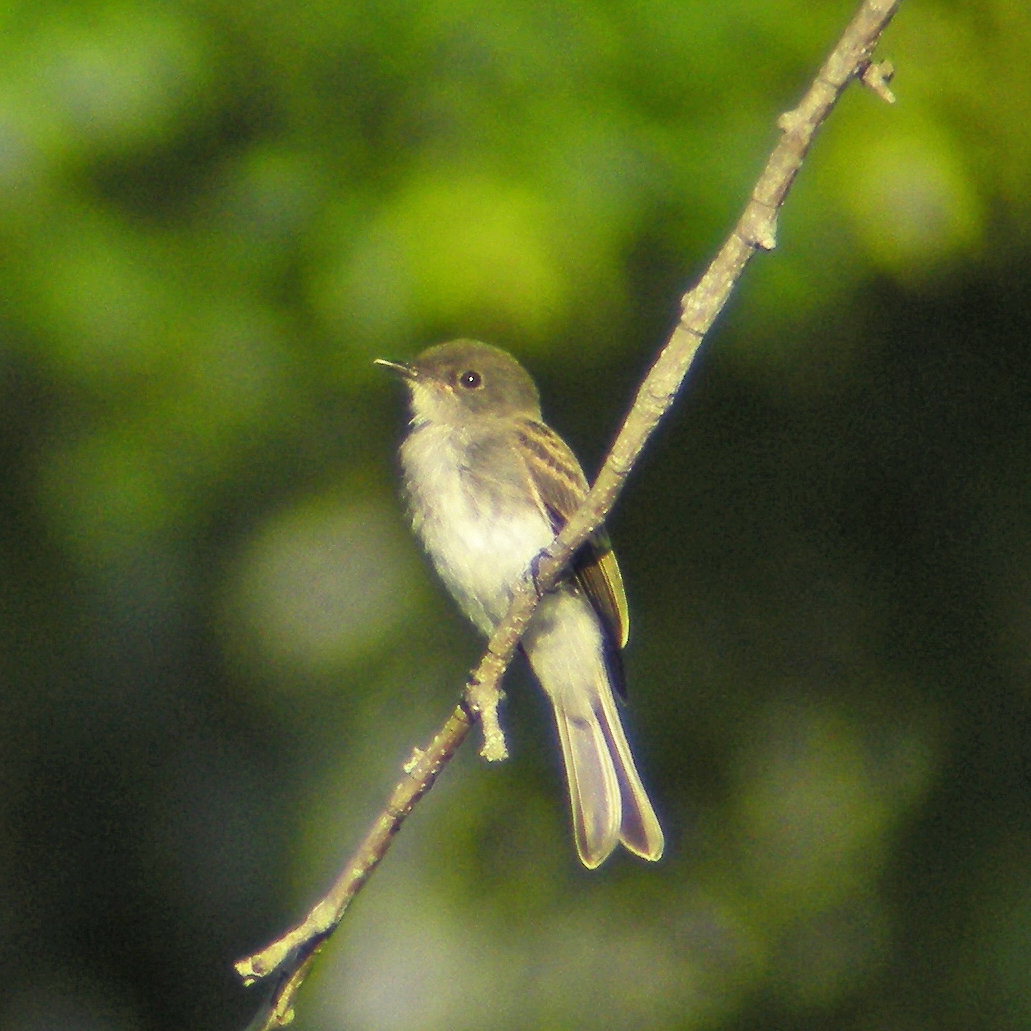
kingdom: Animalia
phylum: Chordata
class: Aves
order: Passeriformes
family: Tyrannidae
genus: Sayornis
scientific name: Sayornis phoebe
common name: Eastern phoebe
